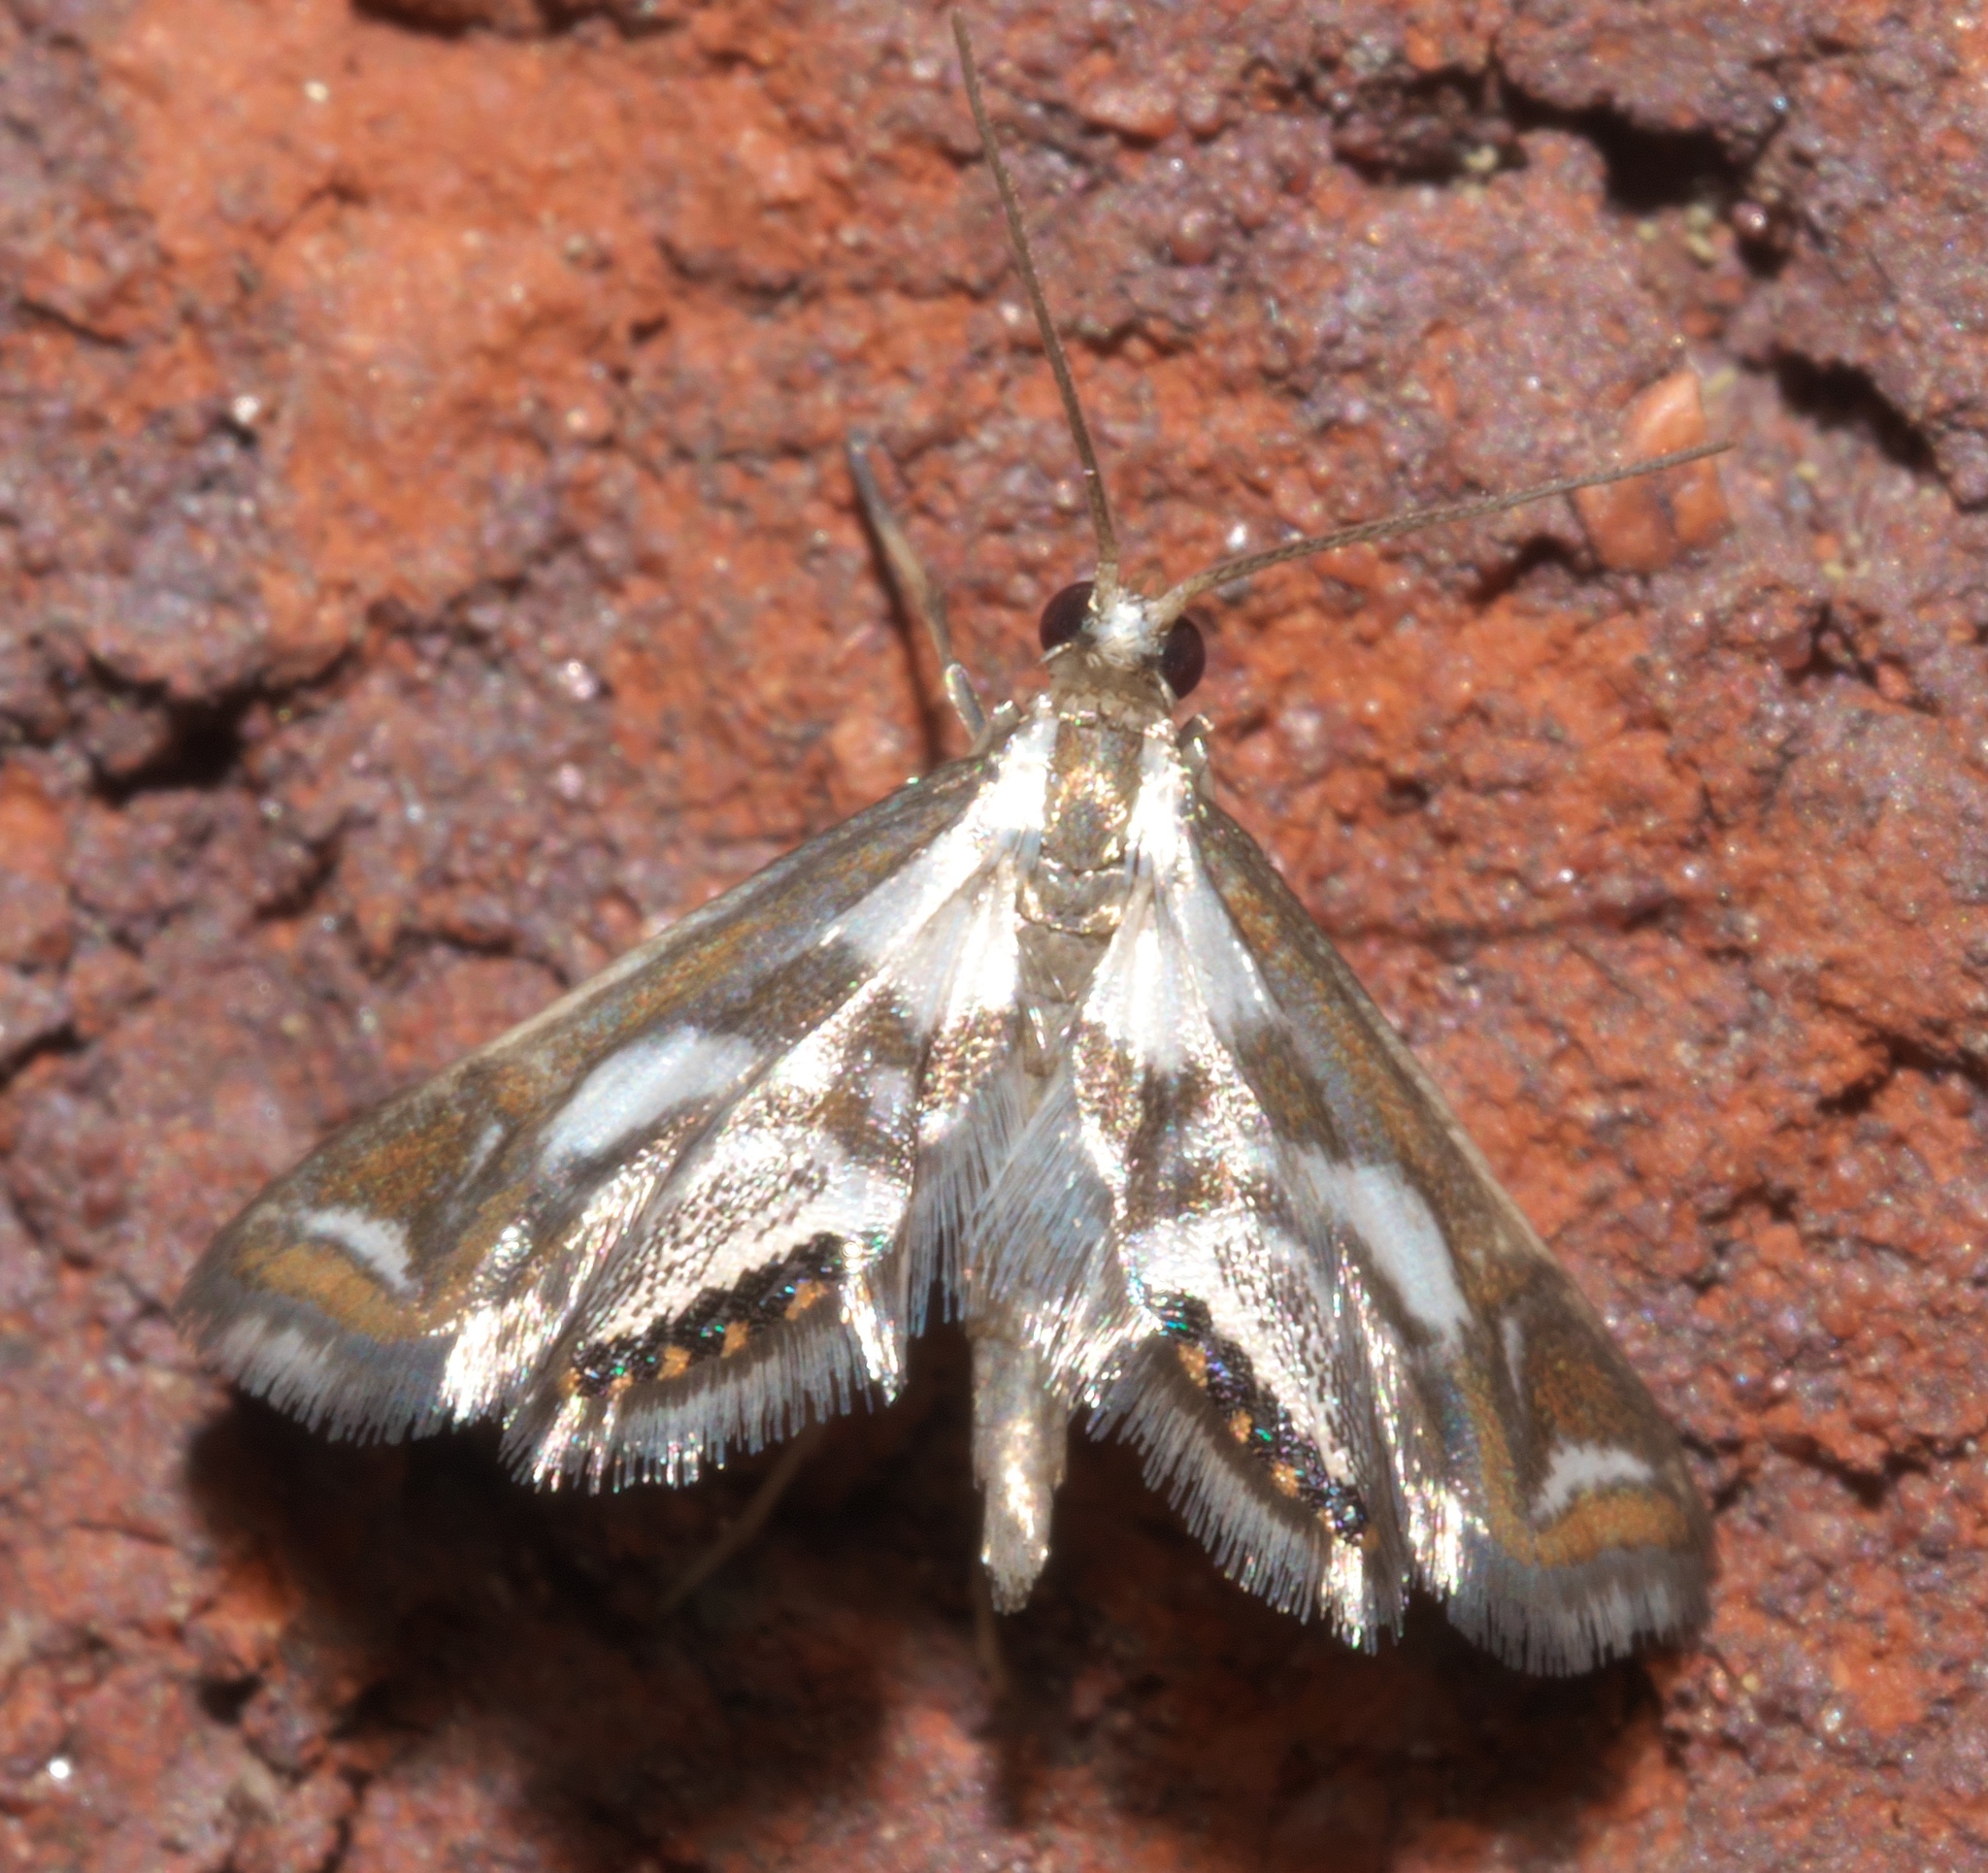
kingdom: Animalia
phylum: Arthropoda
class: Insecta
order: Lepidoptera
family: Crambidae
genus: Chrysendeton
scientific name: Chrysendeton imitabilis
